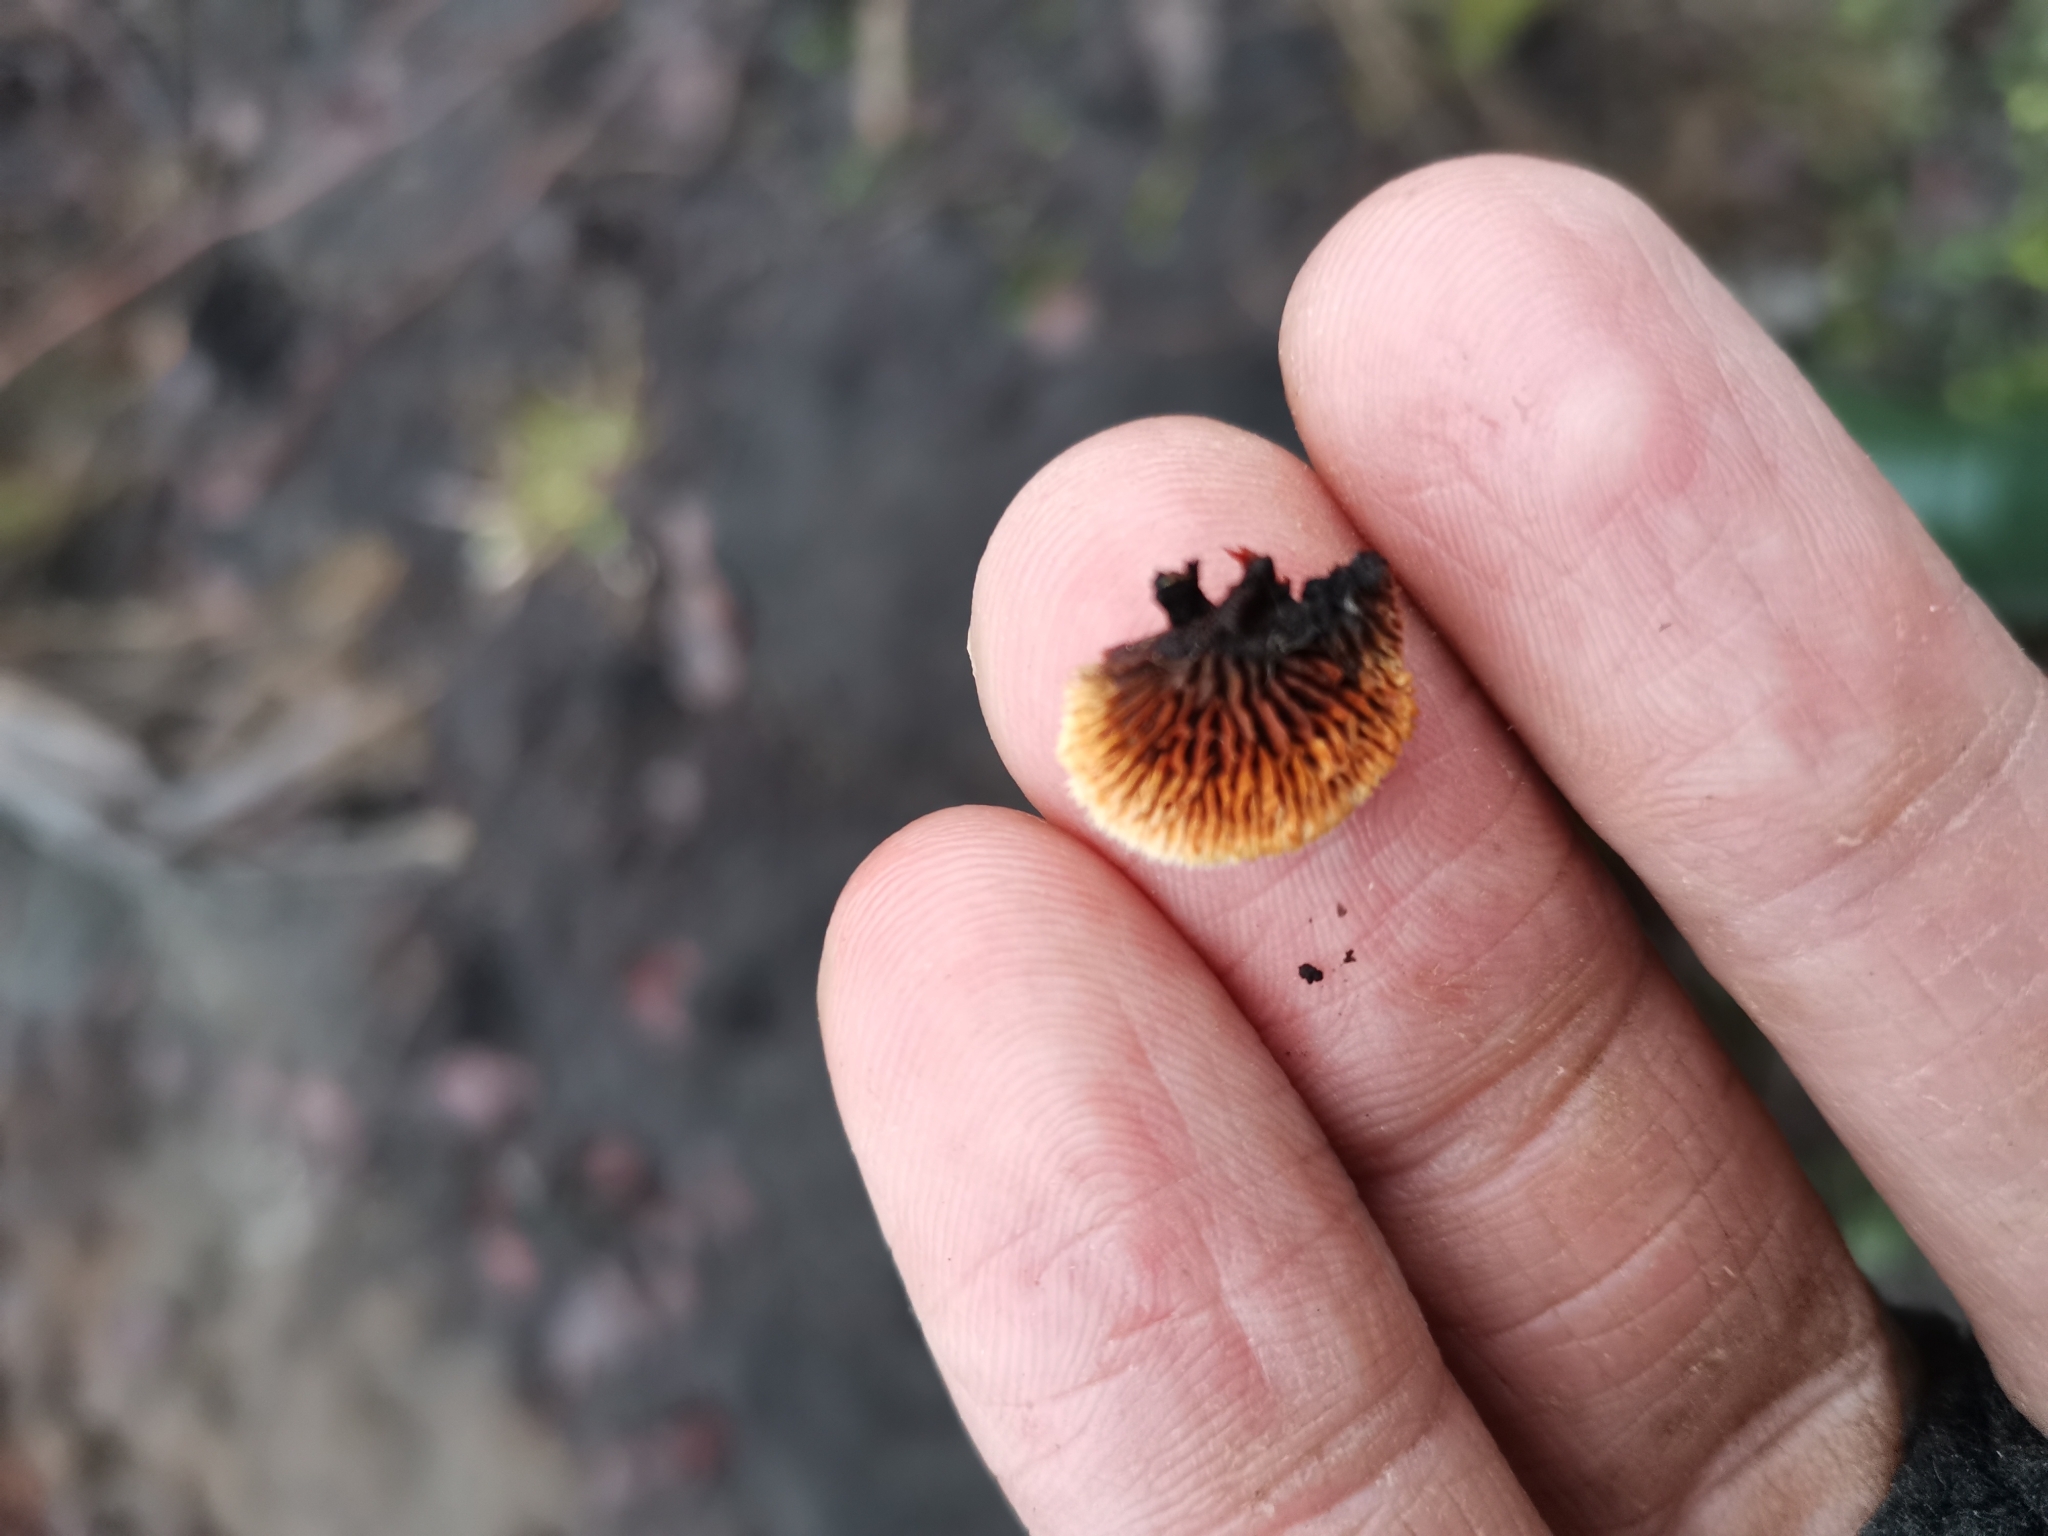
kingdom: Fungi
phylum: Basidiomycota
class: Agaricomycetes
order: Gloeophyllales
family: Gloeophyllaceae
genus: Gloeophyllum
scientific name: Gloeophyllum sepiarium
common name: Conifer mazegill
